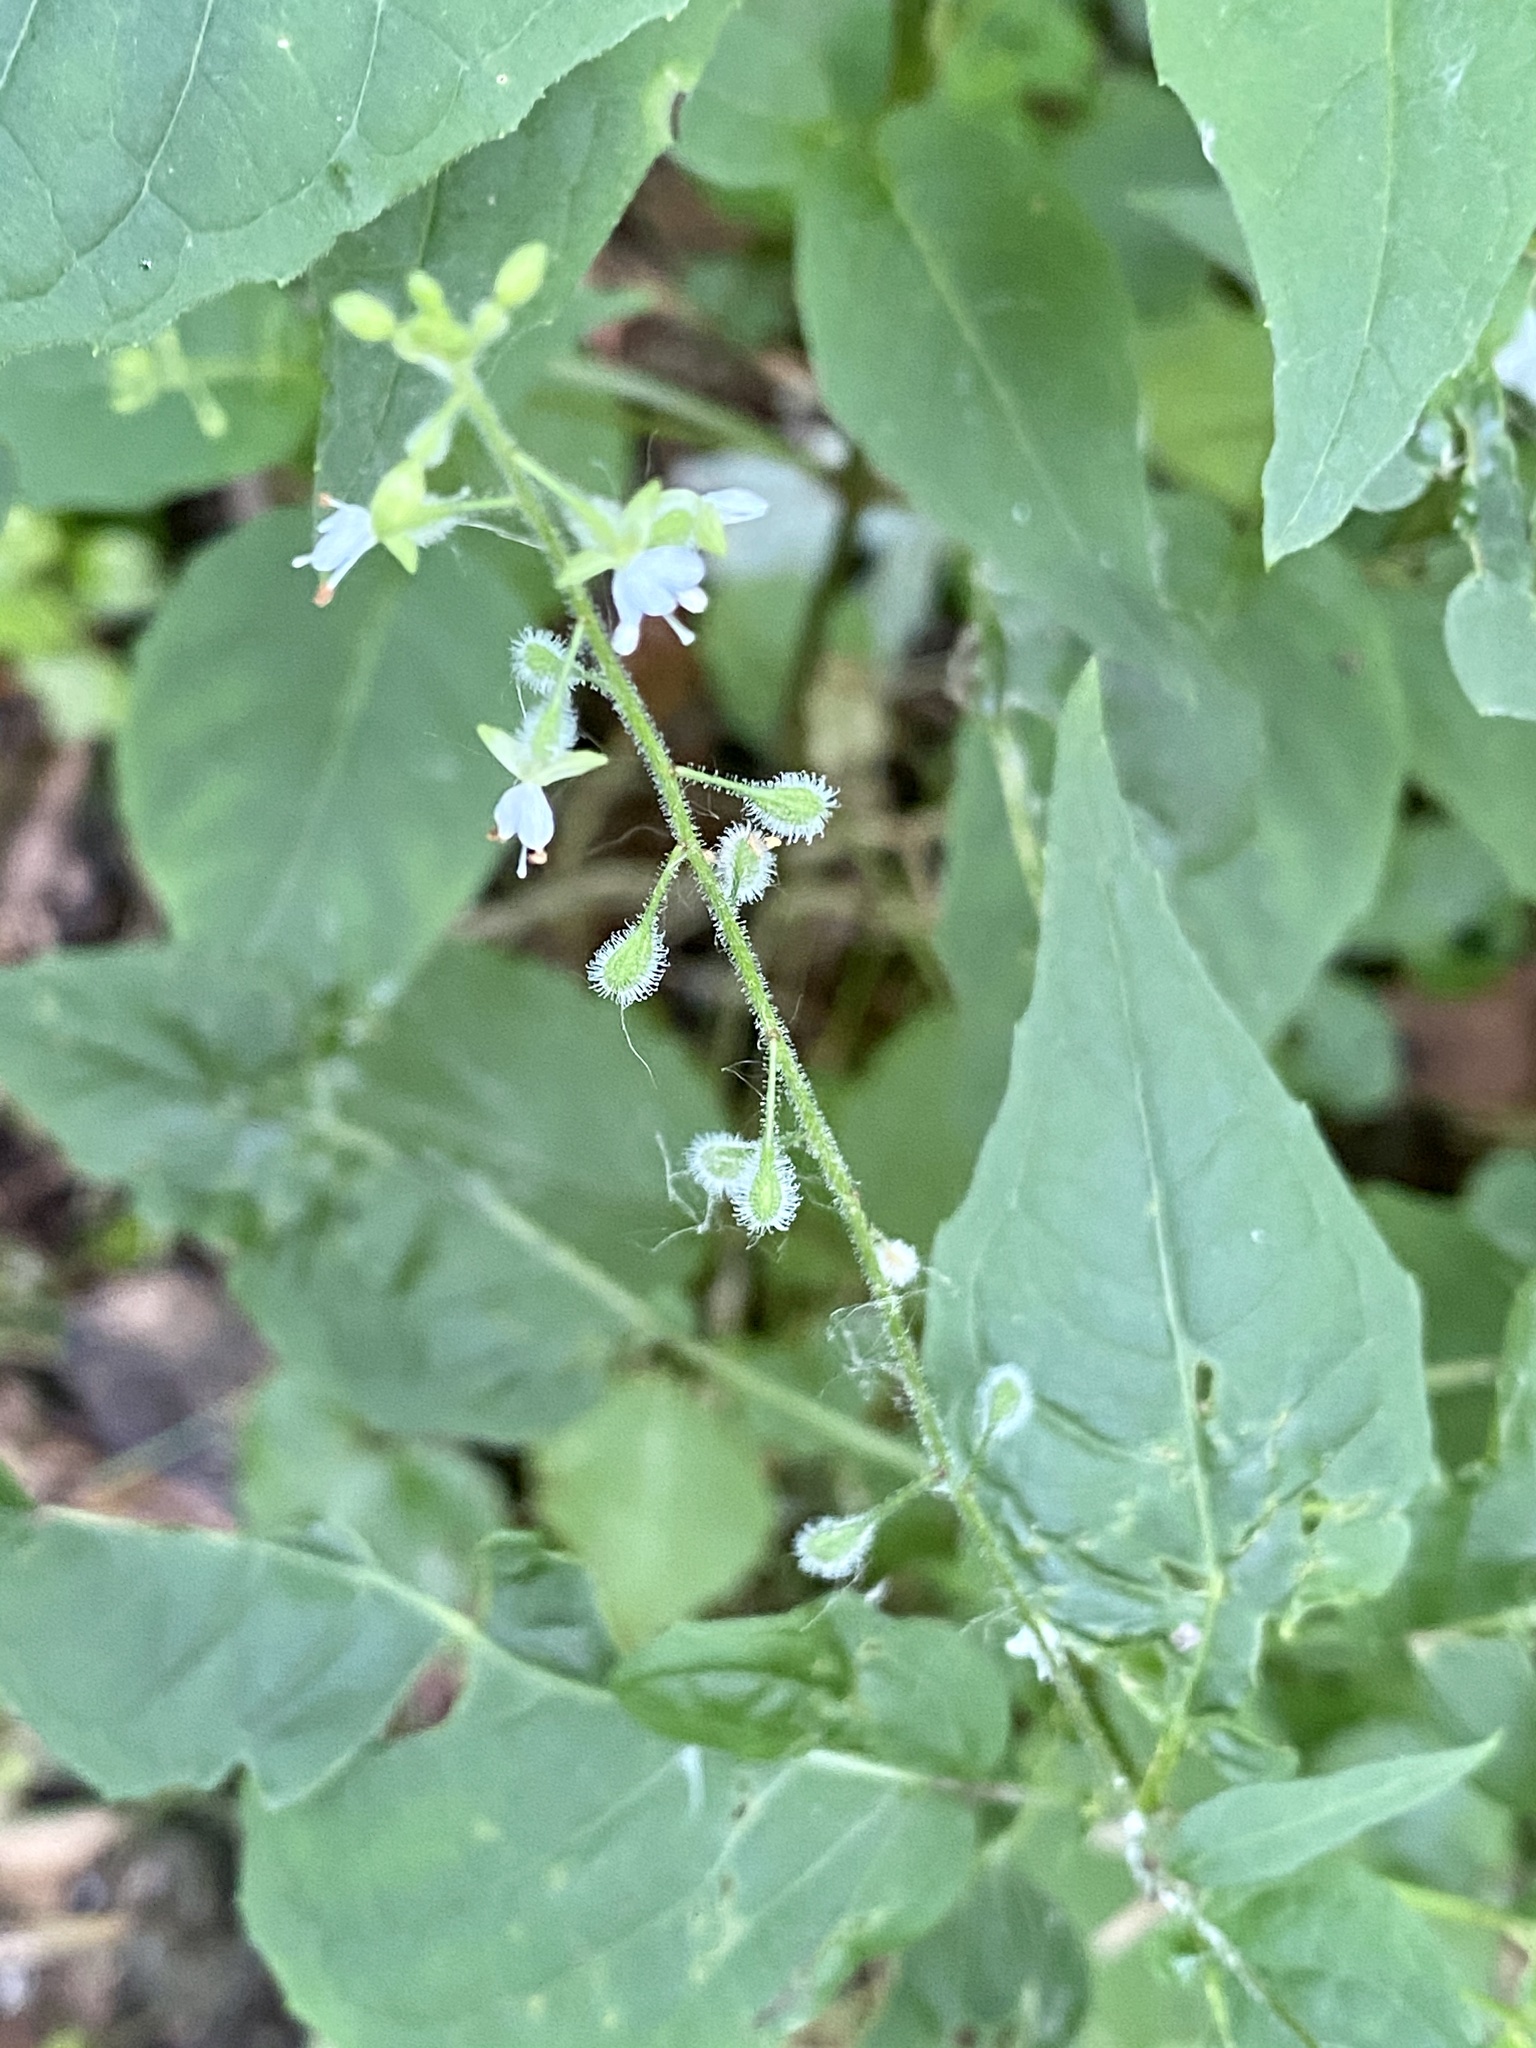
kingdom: Plantae
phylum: Tracheophyta
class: Magnoliopsida
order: Myrtales
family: Onagraceae
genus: Circaea
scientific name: Circaea canadensis
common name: Broad-leaved enchanter's nightshade
